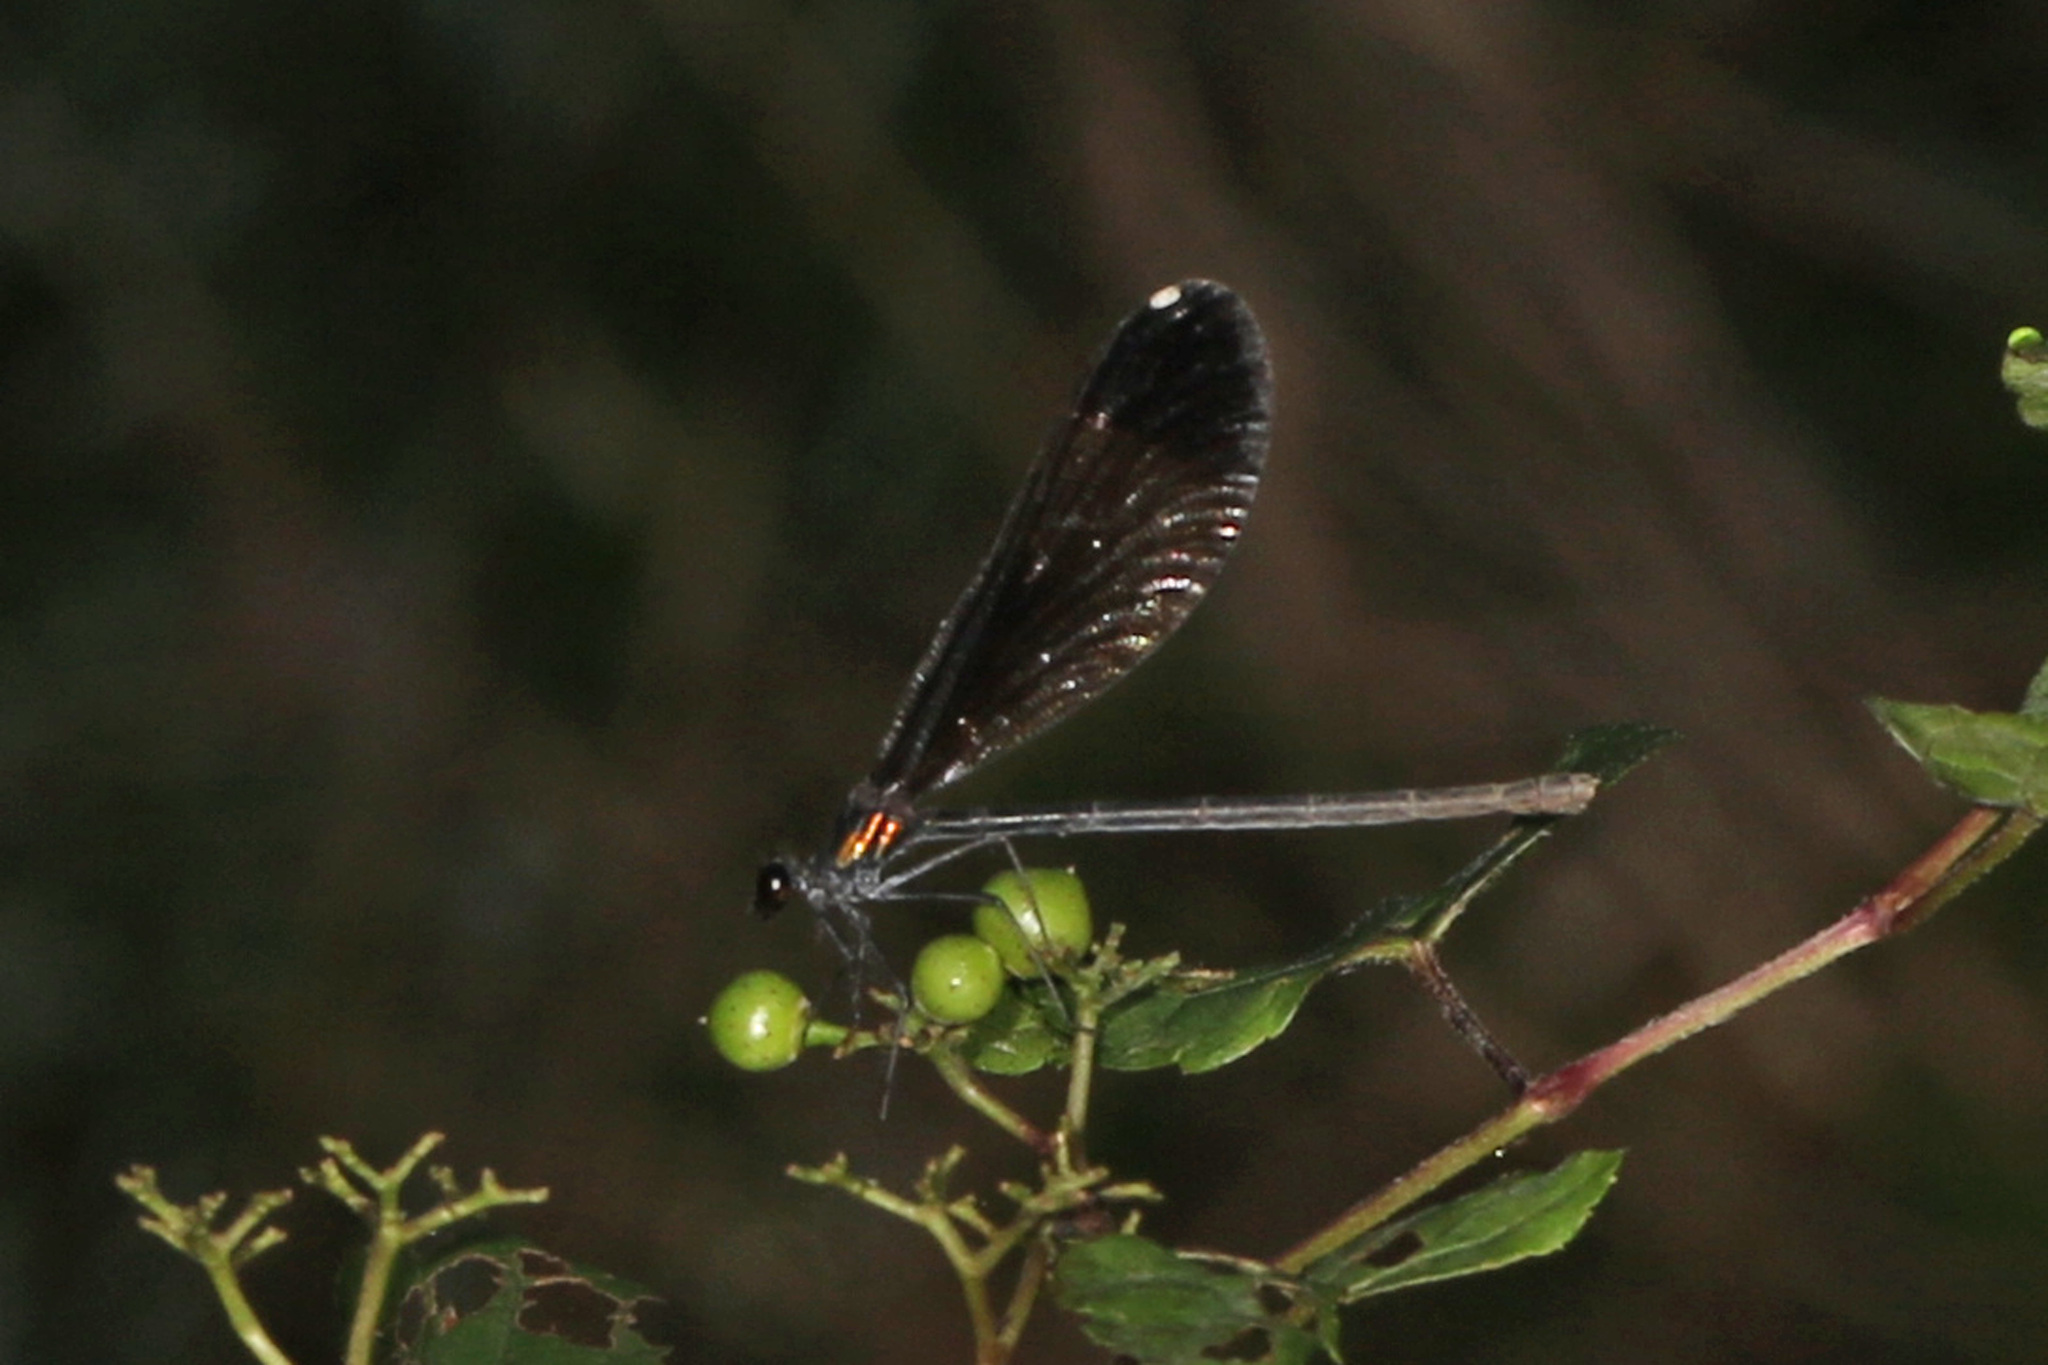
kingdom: Animalia
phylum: Arthropoda
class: Insecta
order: Odonata
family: Calopterygidae
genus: Calopteryx
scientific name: Calopteryx maculata
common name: Ebony jewelwing
